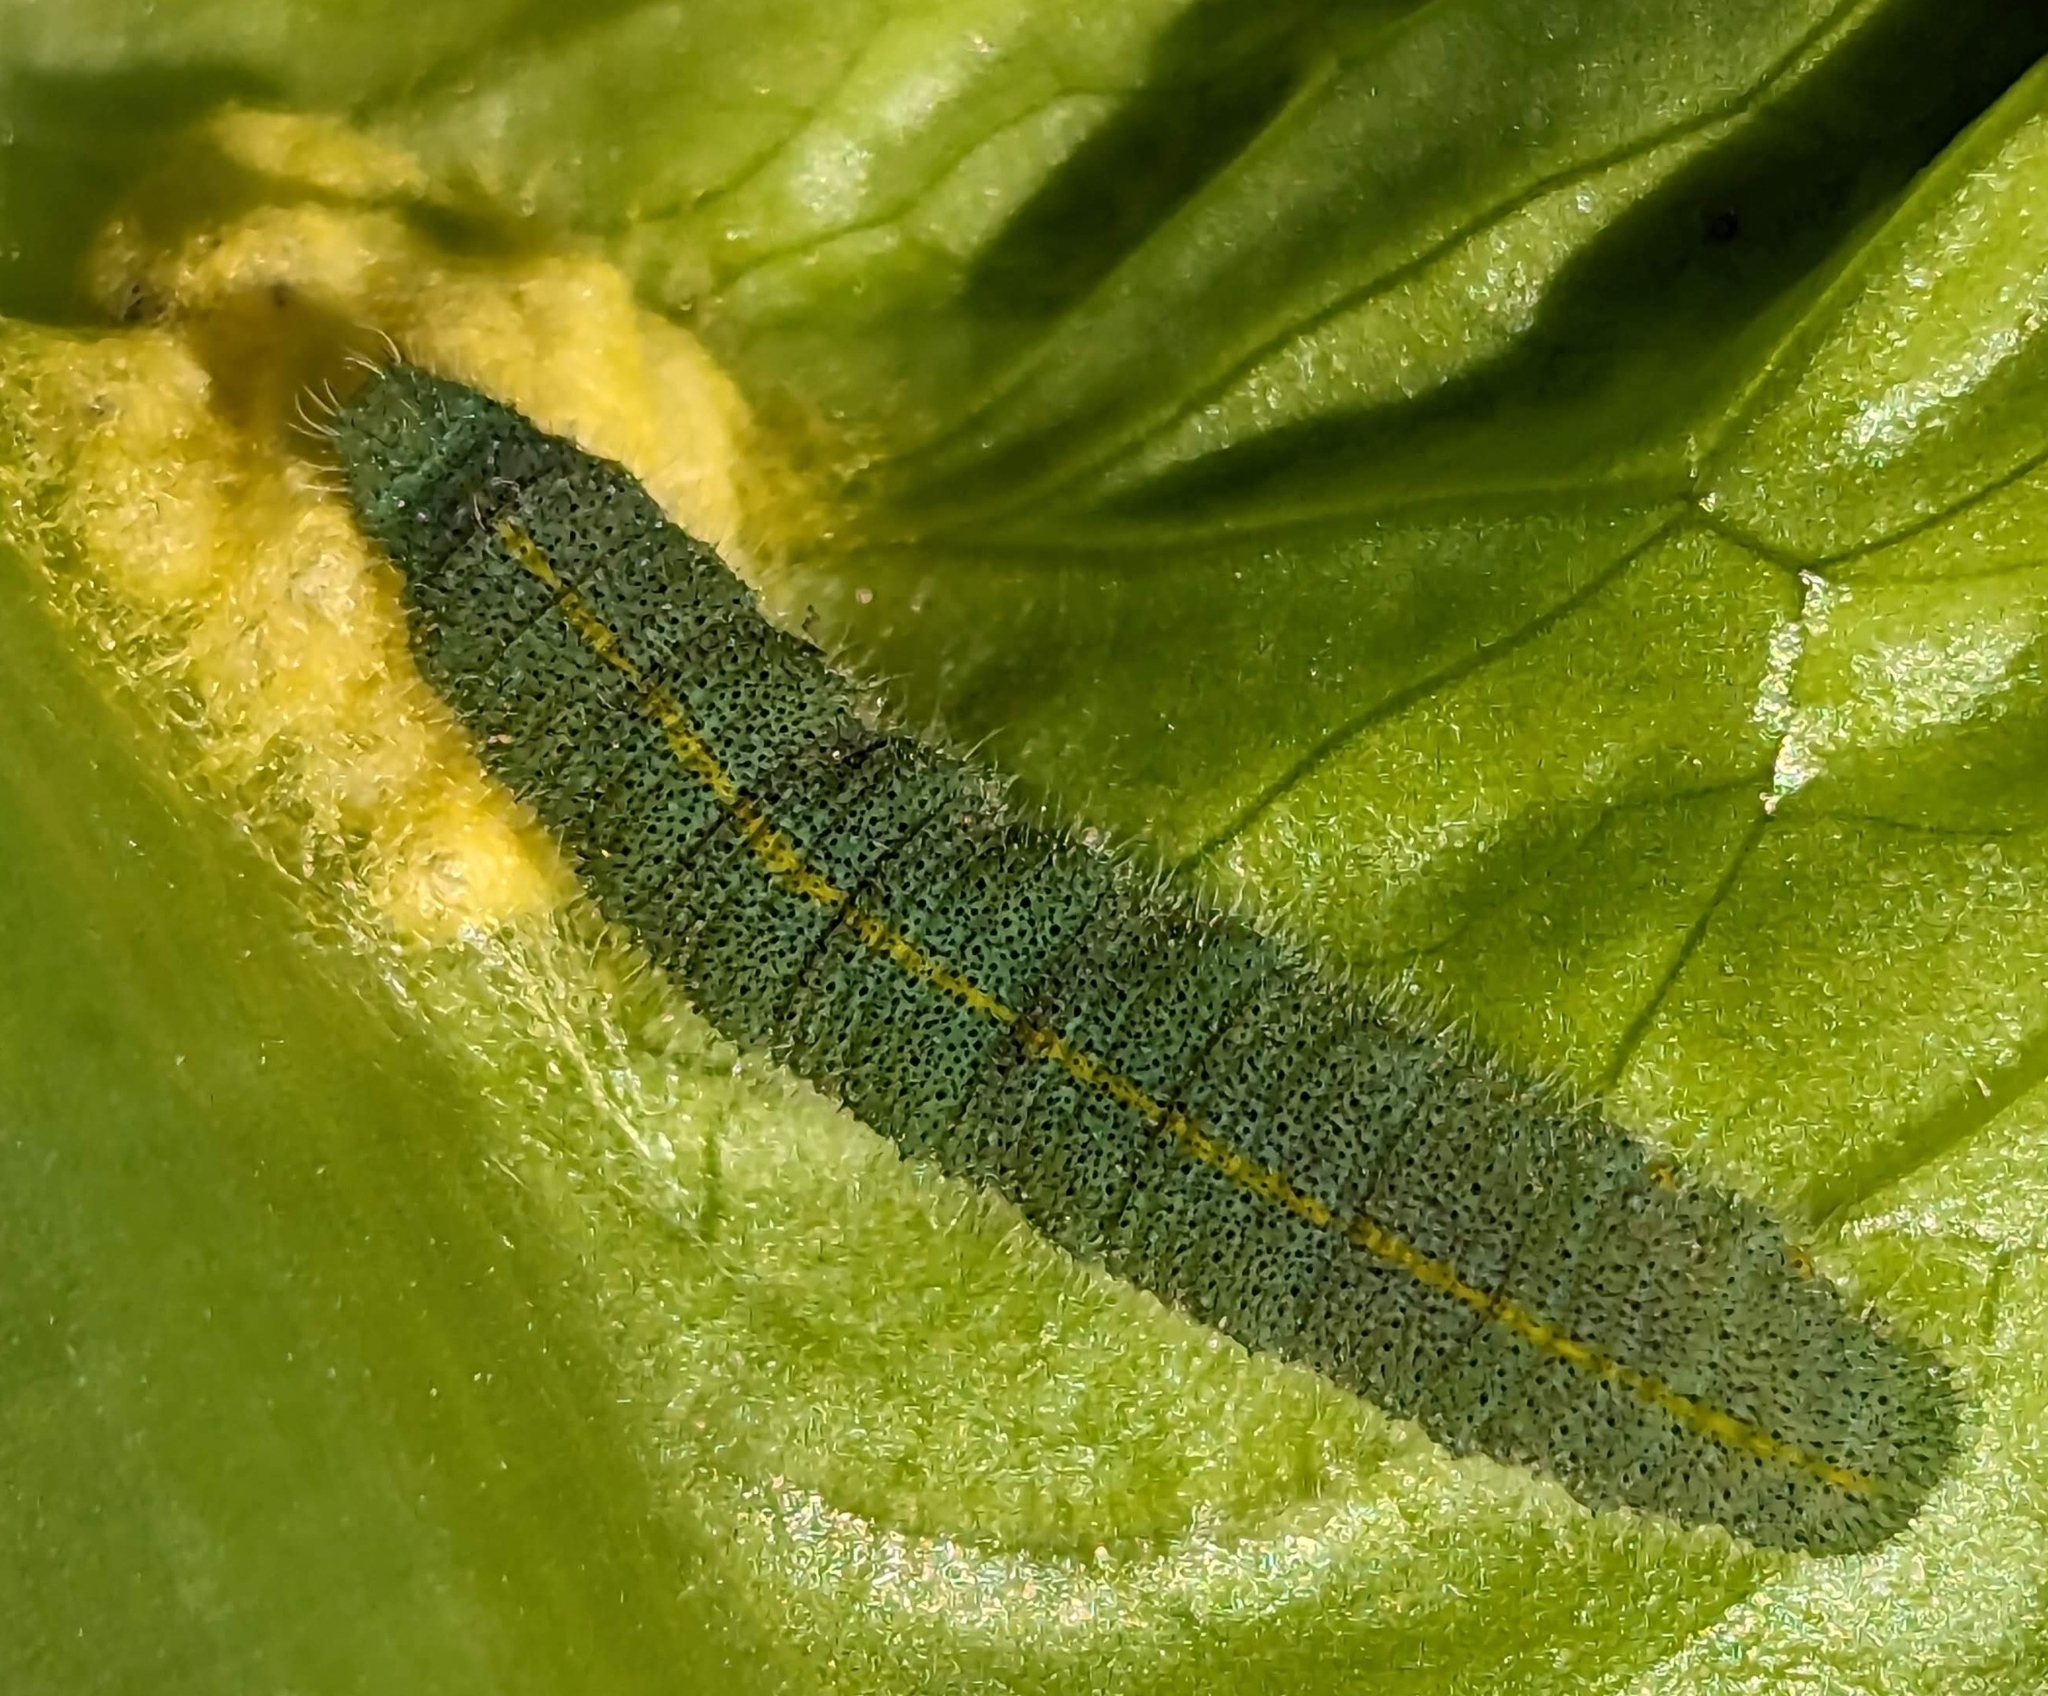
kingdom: Animalia
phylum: Arthropoda
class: Insecta
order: Lepidoptera
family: Pieridae
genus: Pieris
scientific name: Pieris rapae
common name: Small white
